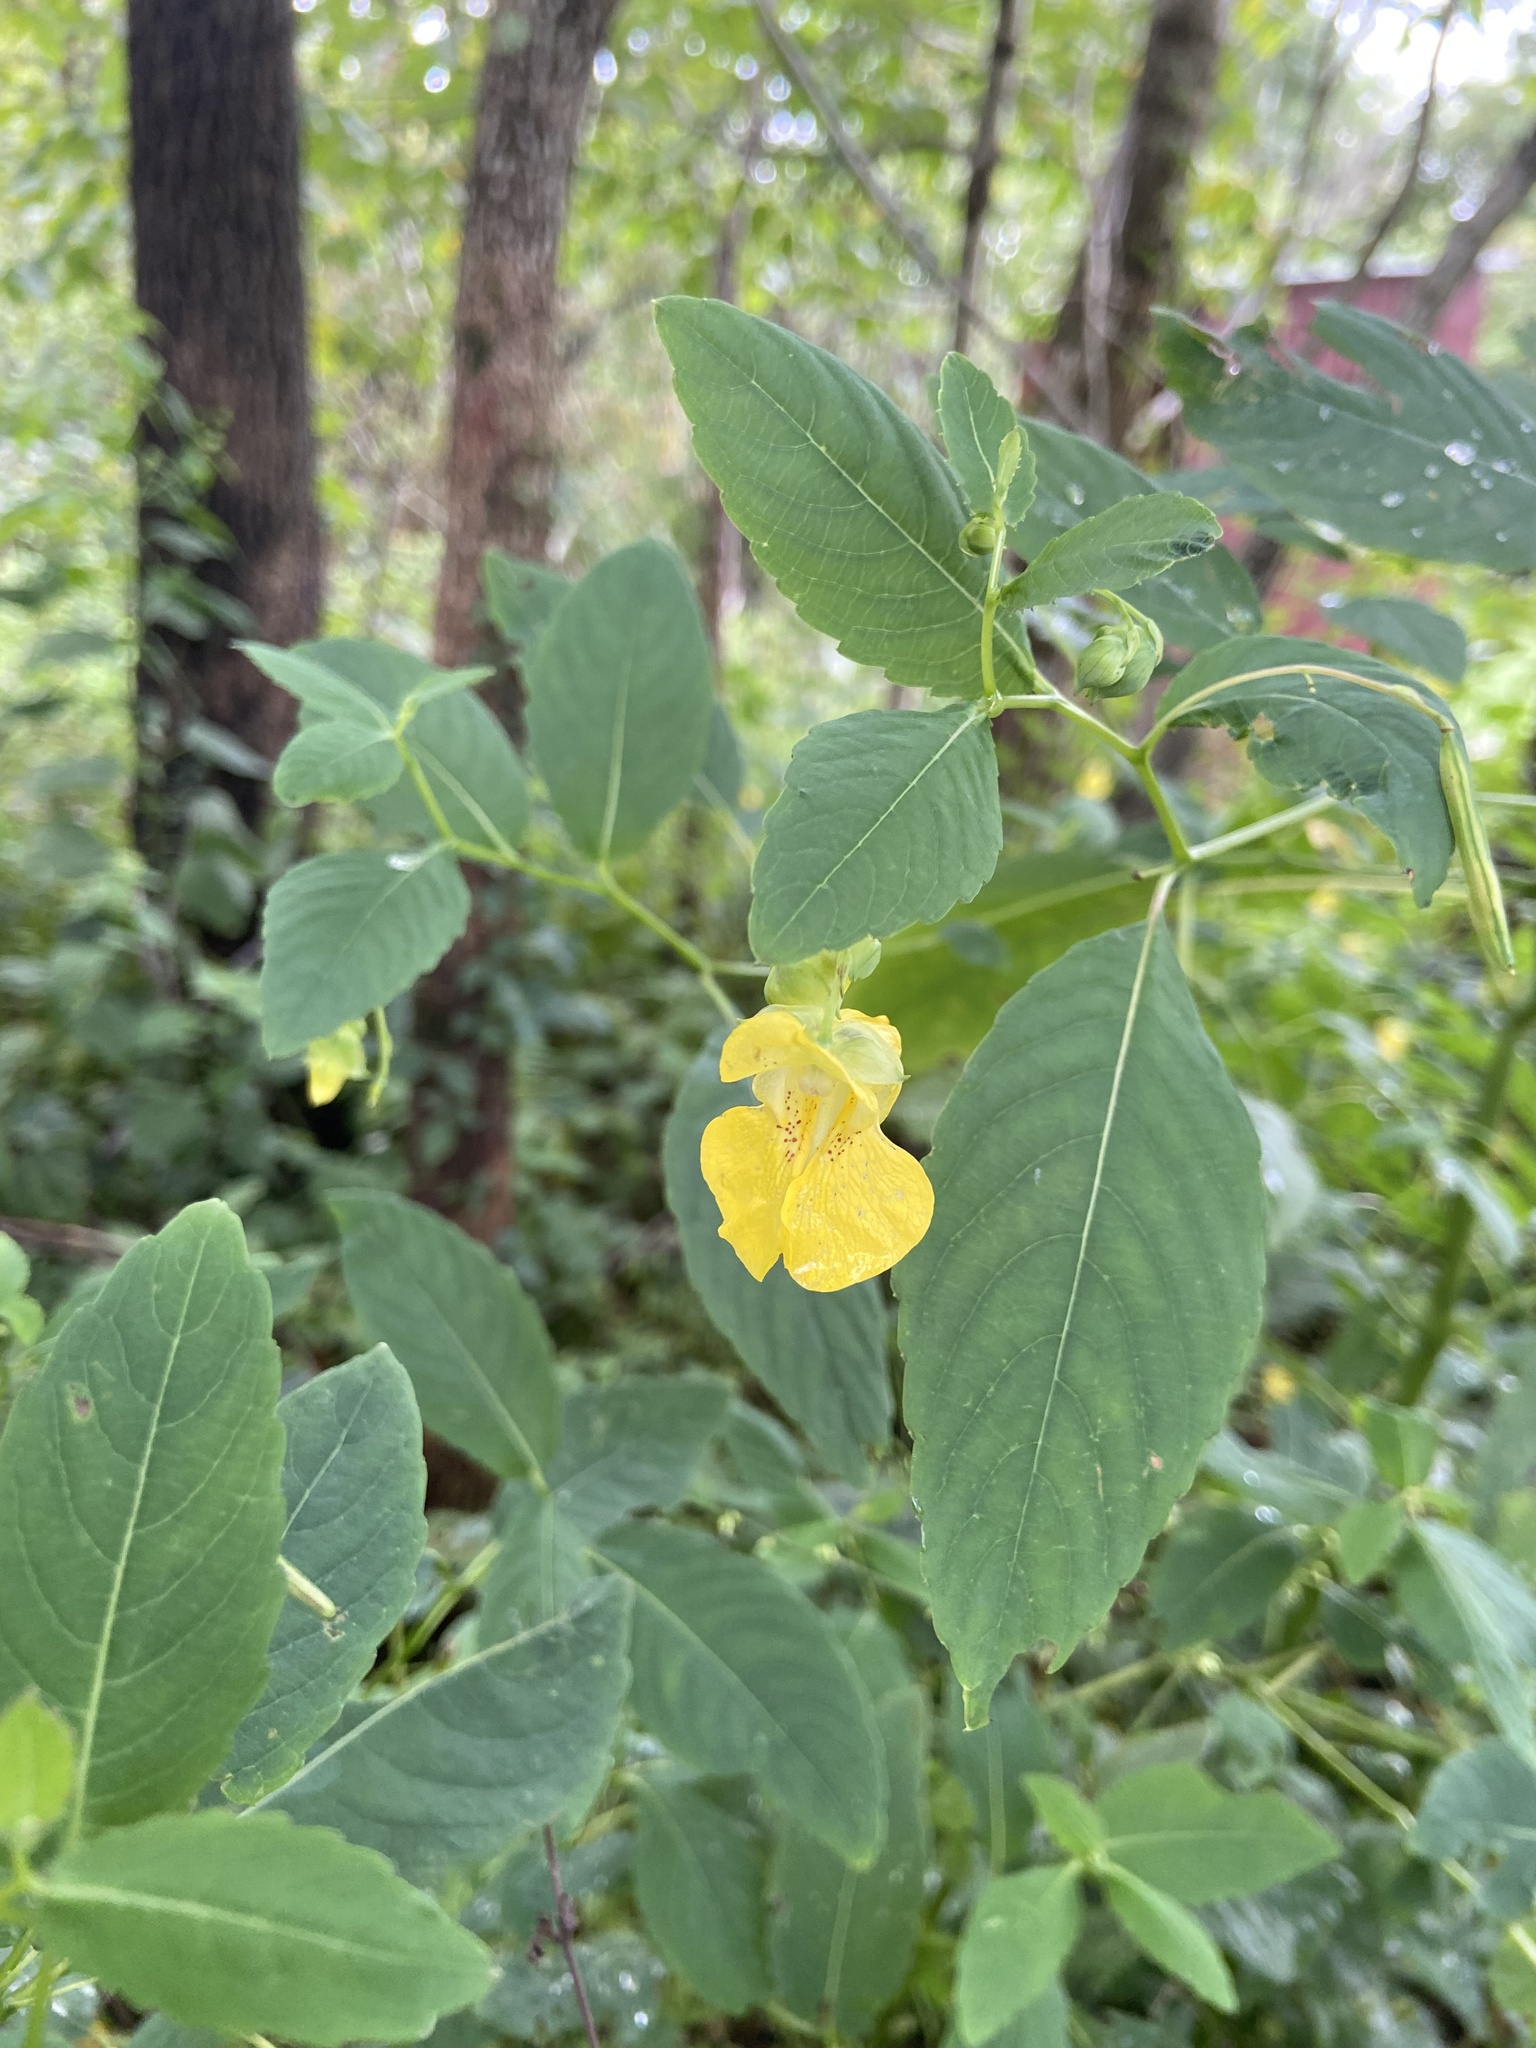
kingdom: Plantae
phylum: Tracheophyta
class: Magnoliopsida
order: Ericales
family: Balsaminaceae
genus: Impatiens
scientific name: Impatiens pallida
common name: Pale snapweed
